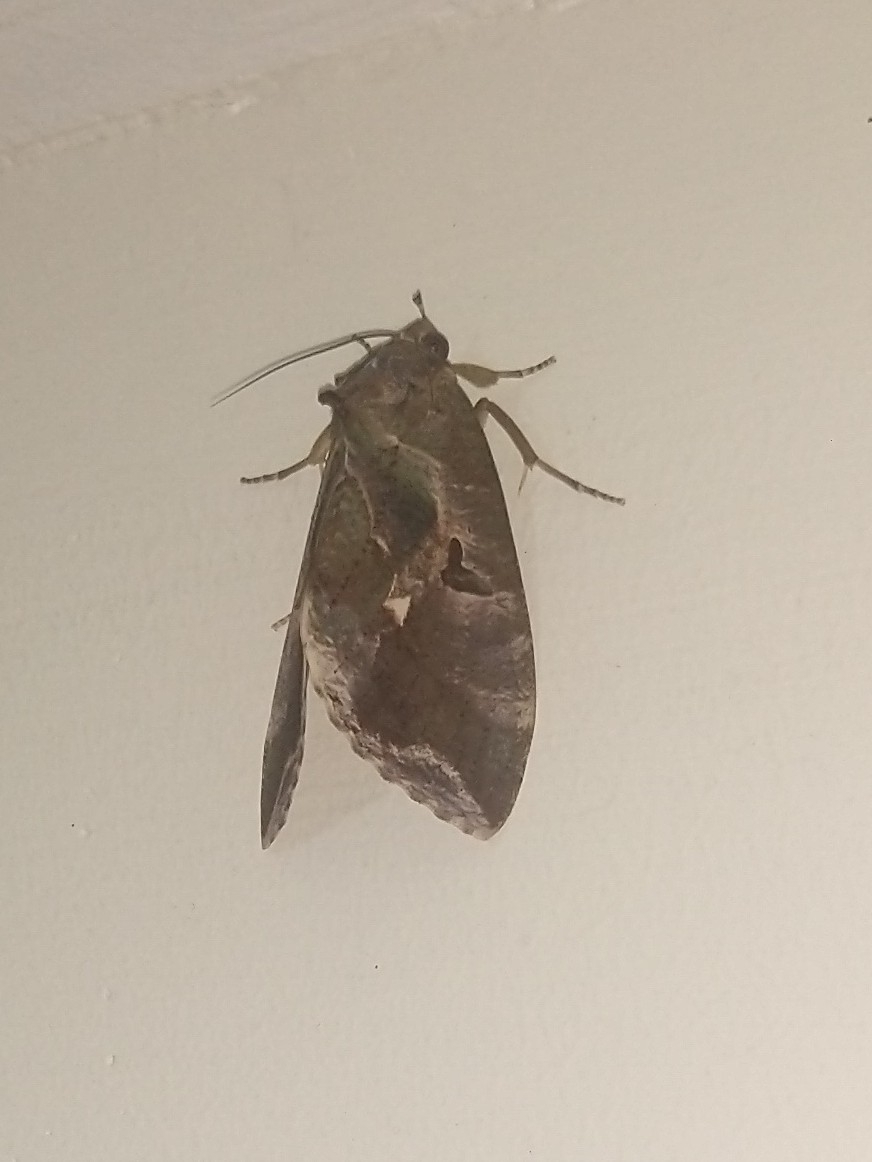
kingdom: Animalia
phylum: Arthropoda
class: Insecta
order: Lepidoptera
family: Erebidae
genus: Eudocima
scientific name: Eudocima phalonia
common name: Wasp
